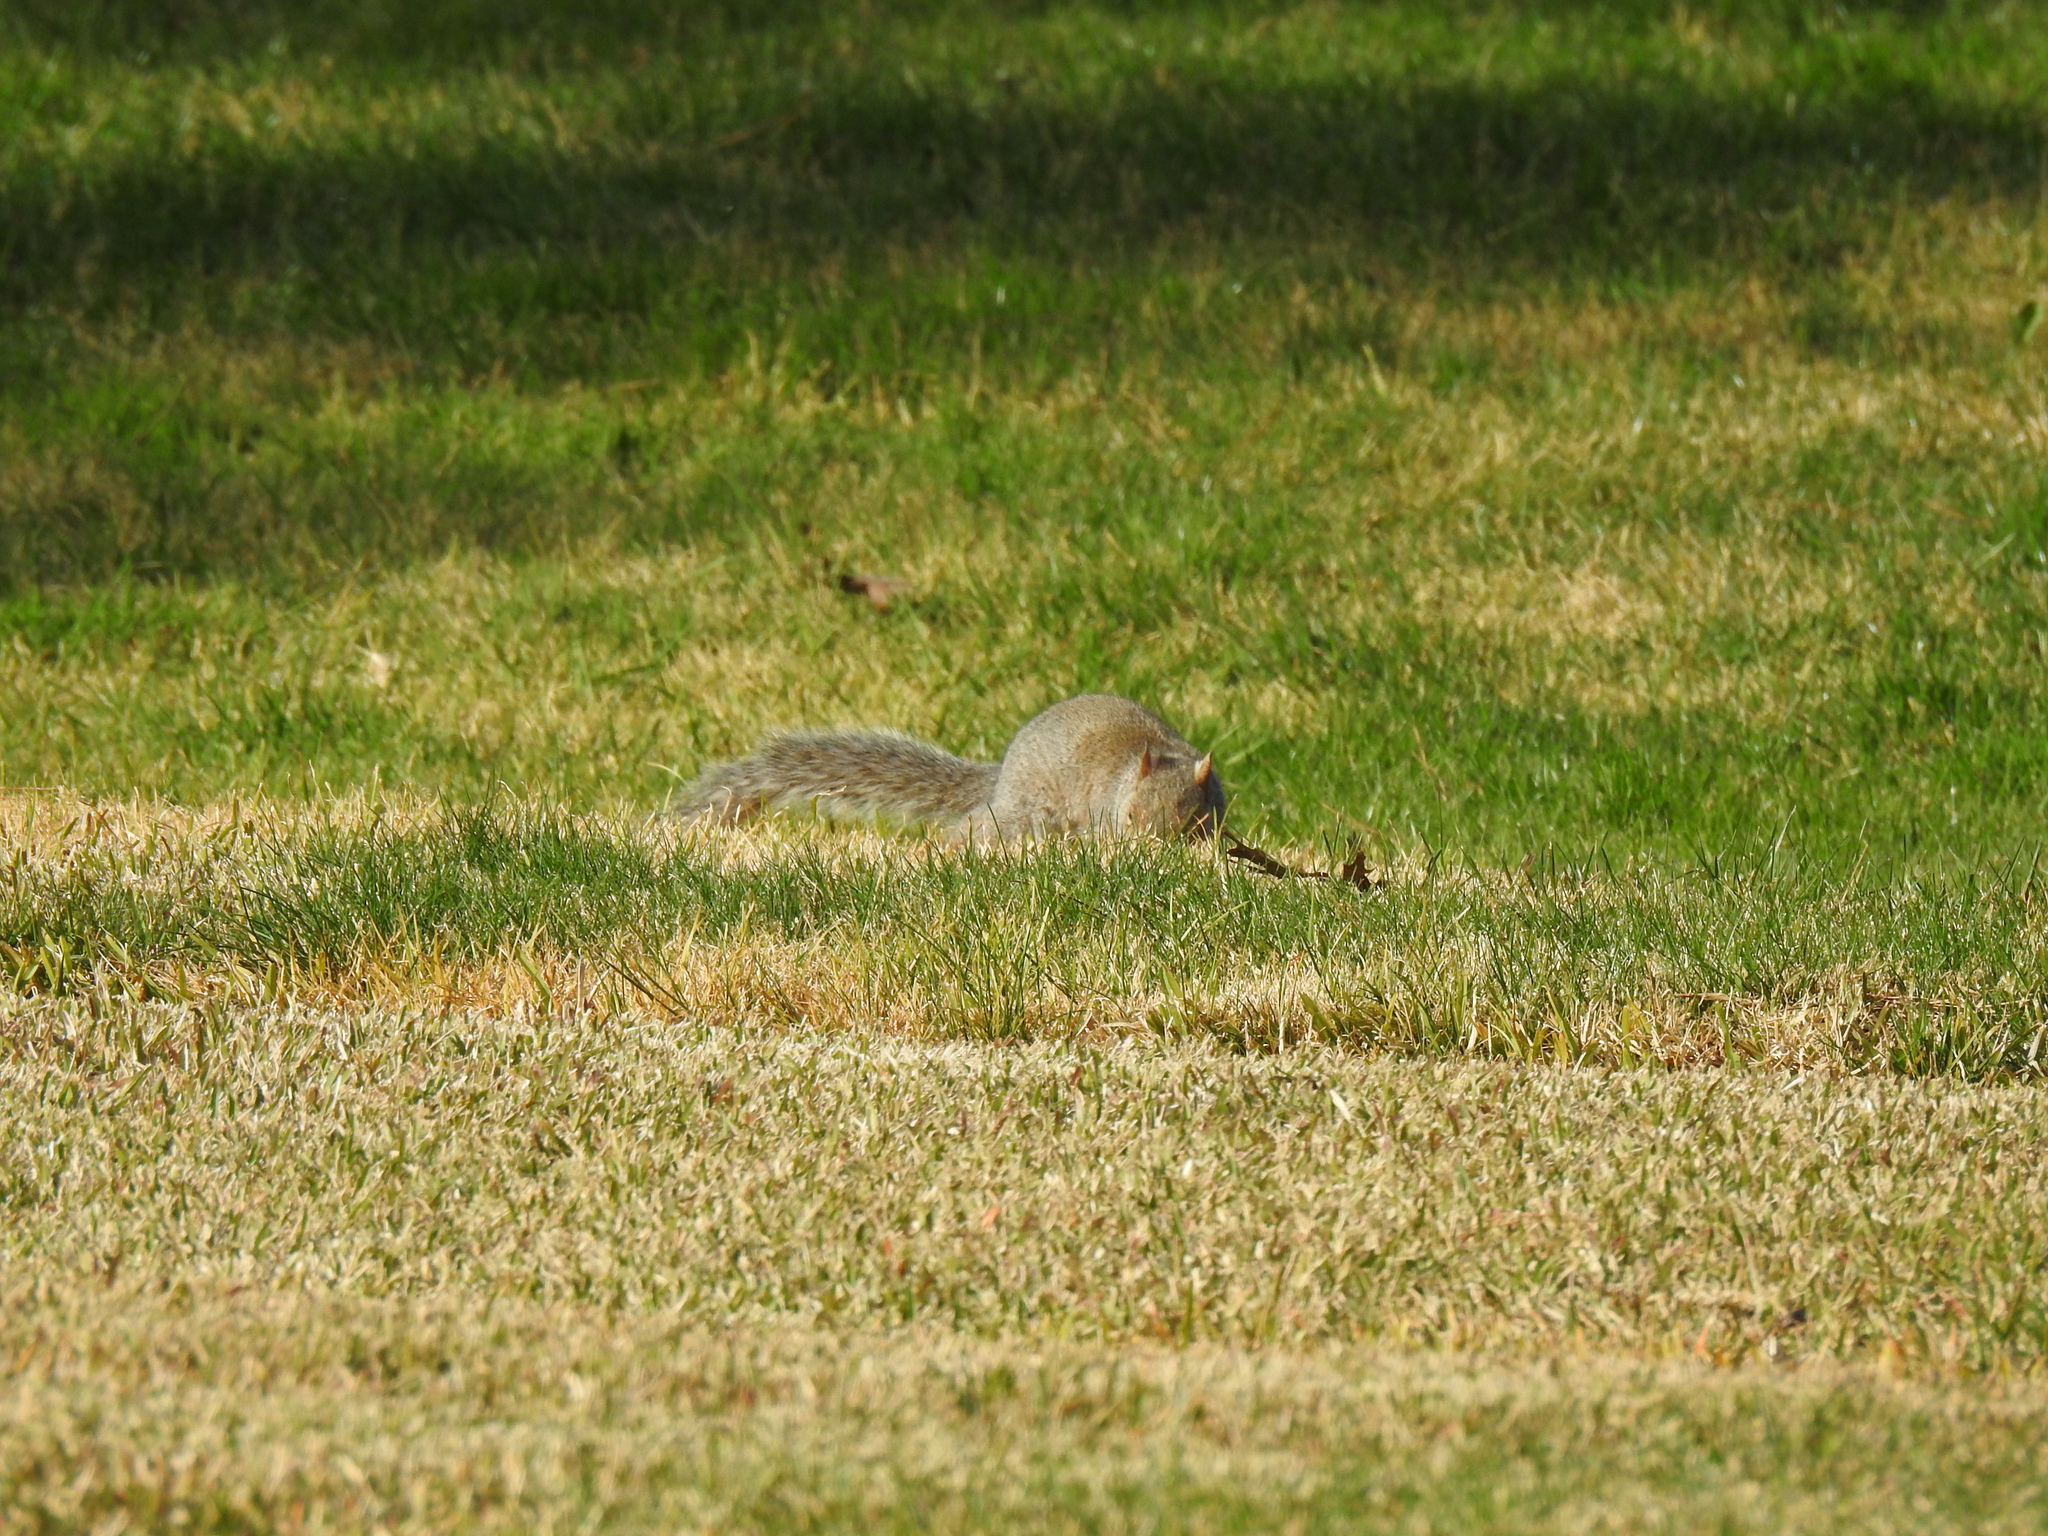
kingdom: Animalia
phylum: Chordata
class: Mammalia
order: Rodentia
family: Sciuridae
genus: Sciurus
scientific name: Sciurus carolinensis
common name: Eastern gray squirrel
